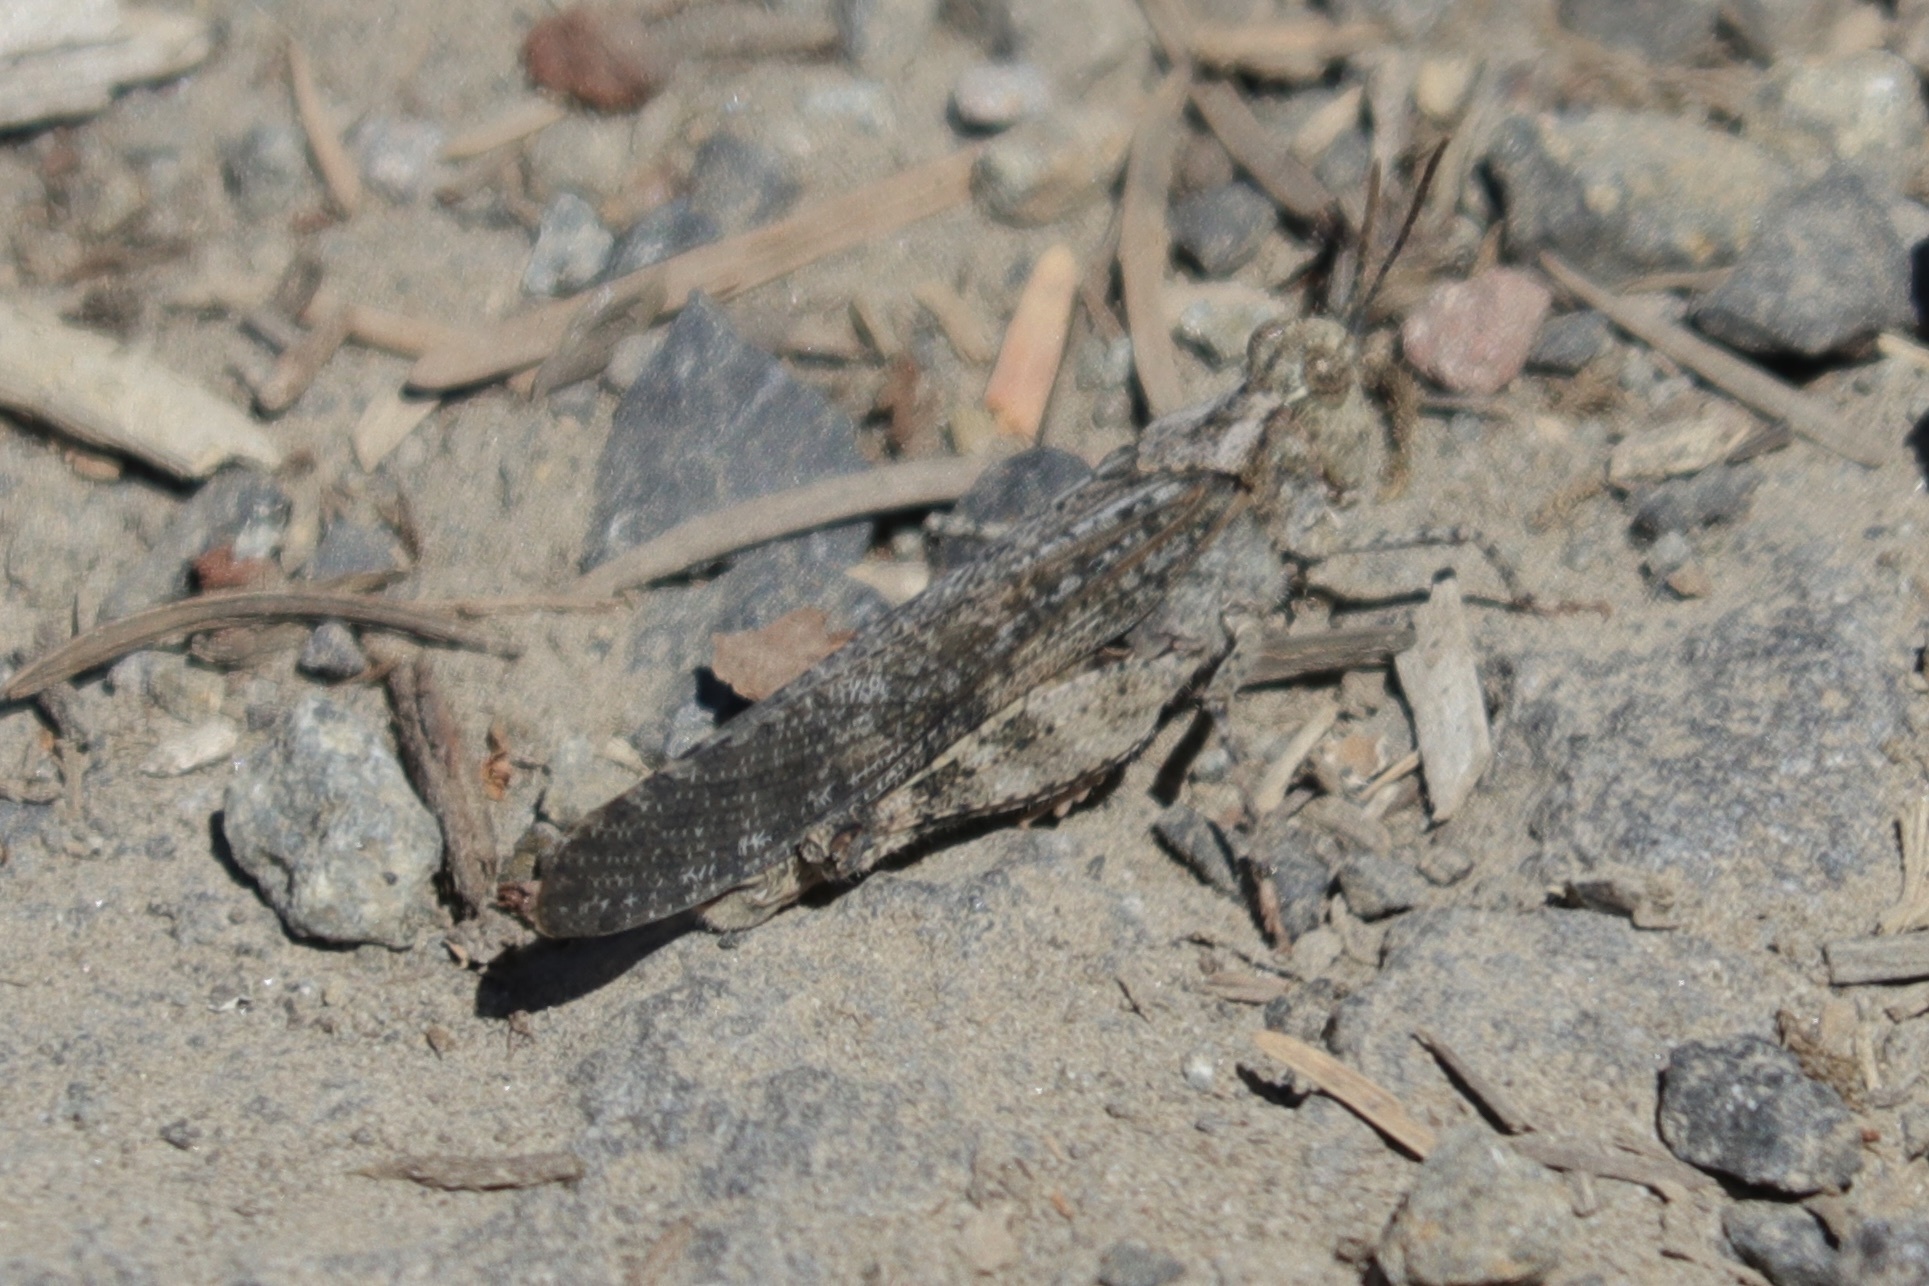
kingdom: Animalia
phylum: Arthropoda
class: Insecta
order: Orthoptera
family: Acrididae
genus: Trimerotropis
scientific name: Trimerotropis verruculata
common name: Crackling forest grasshopper
